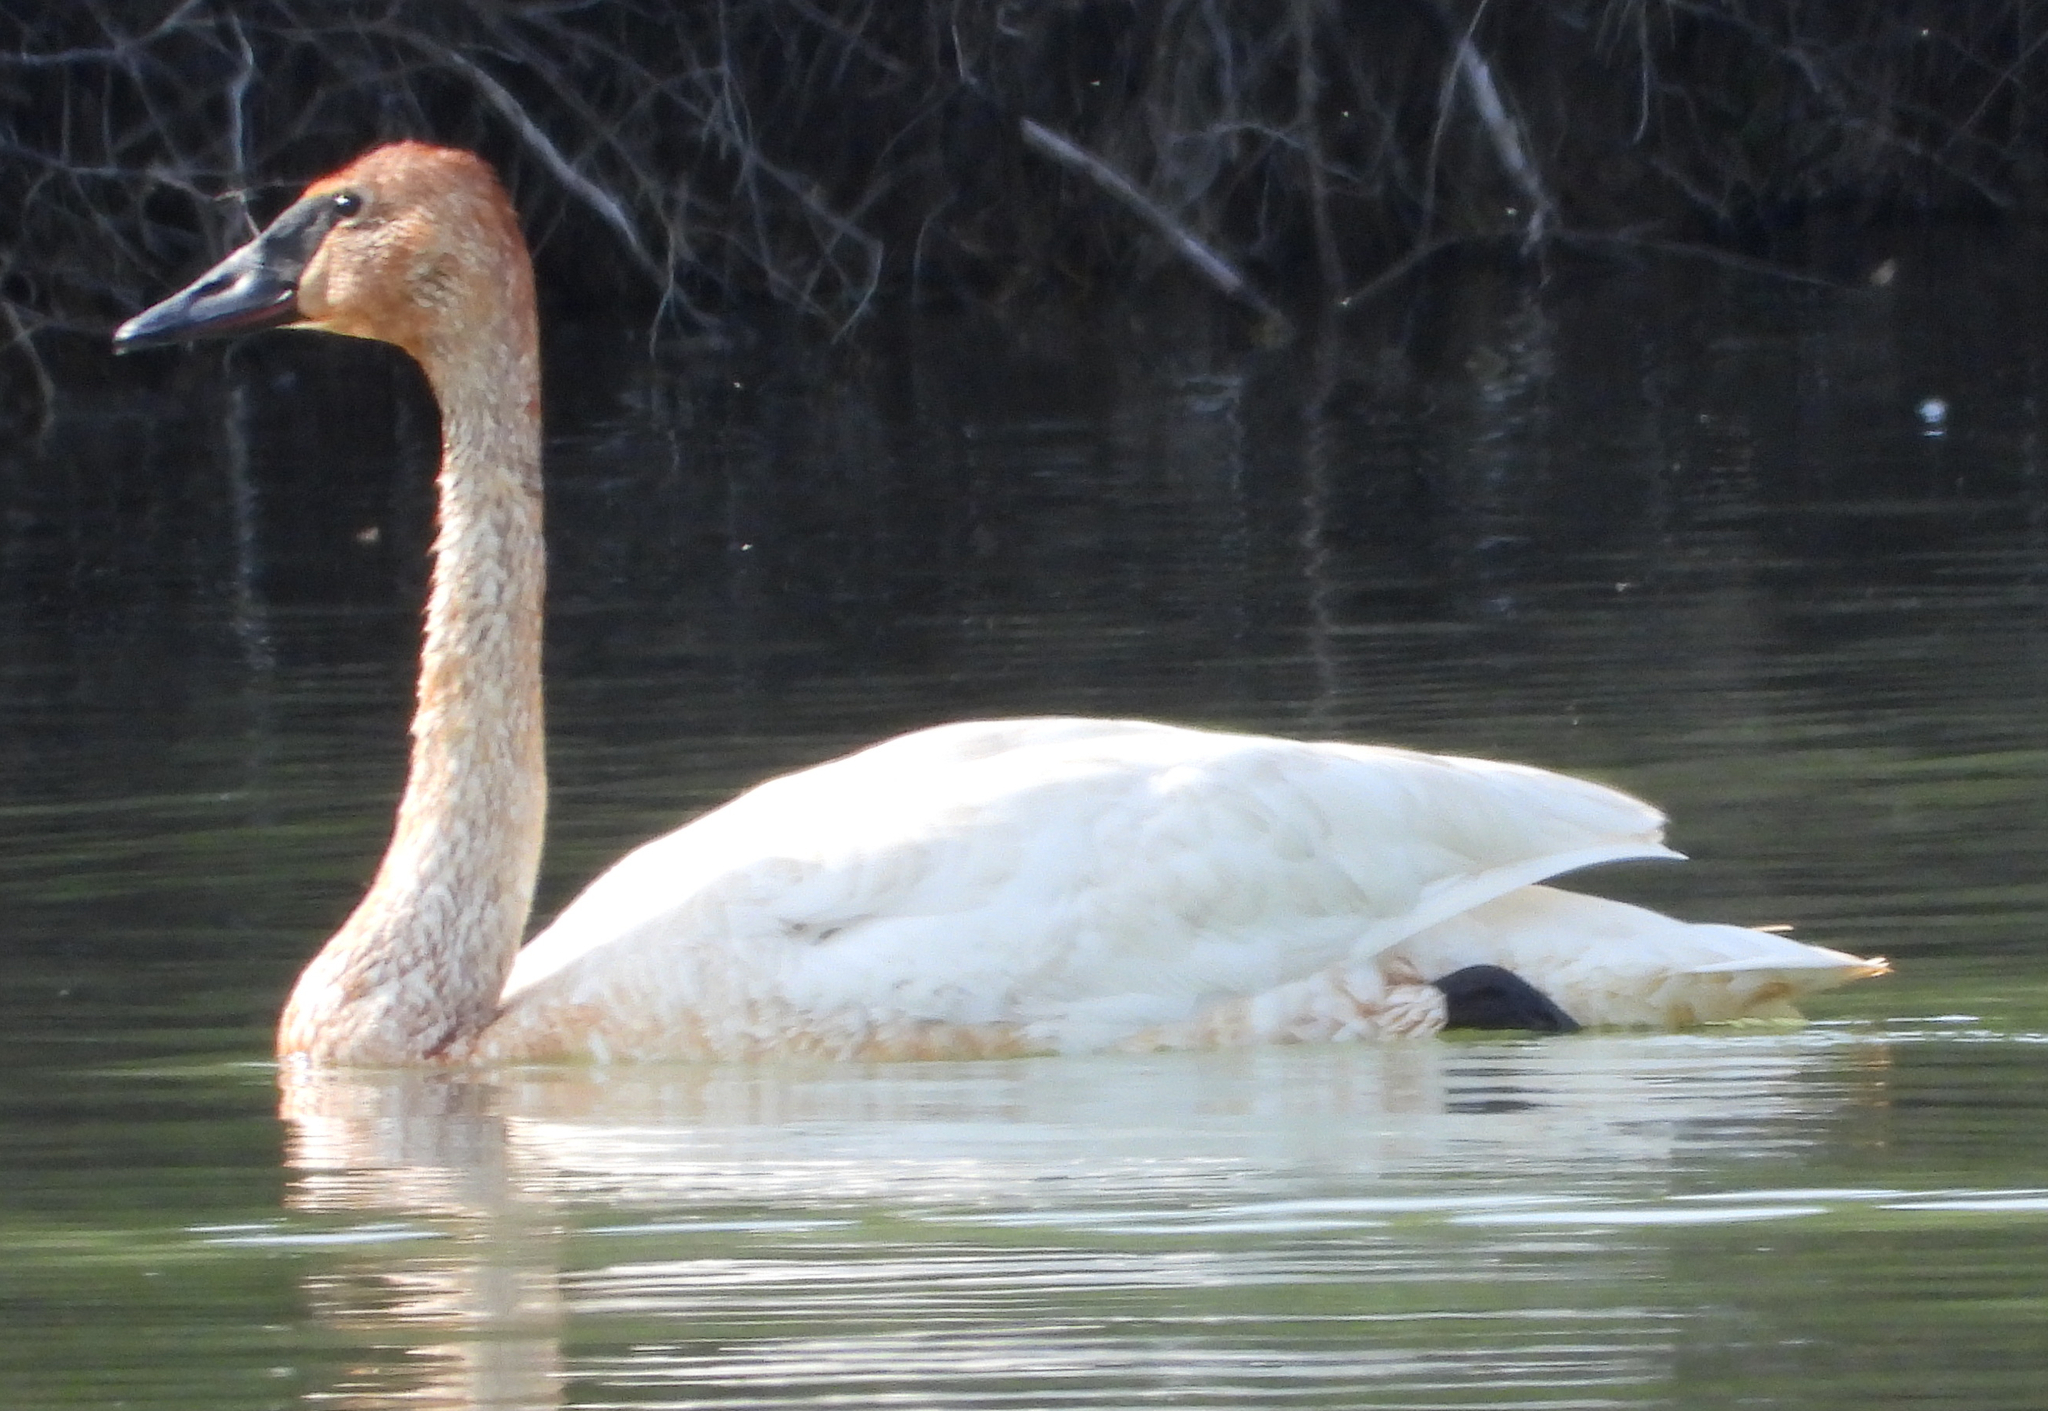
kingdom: Animalia
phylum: Chordata
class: Aves
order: Anseriformes
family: Anatidae
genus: Cygnus
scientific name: Cygnus buccinator
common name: Trumpeter swan
